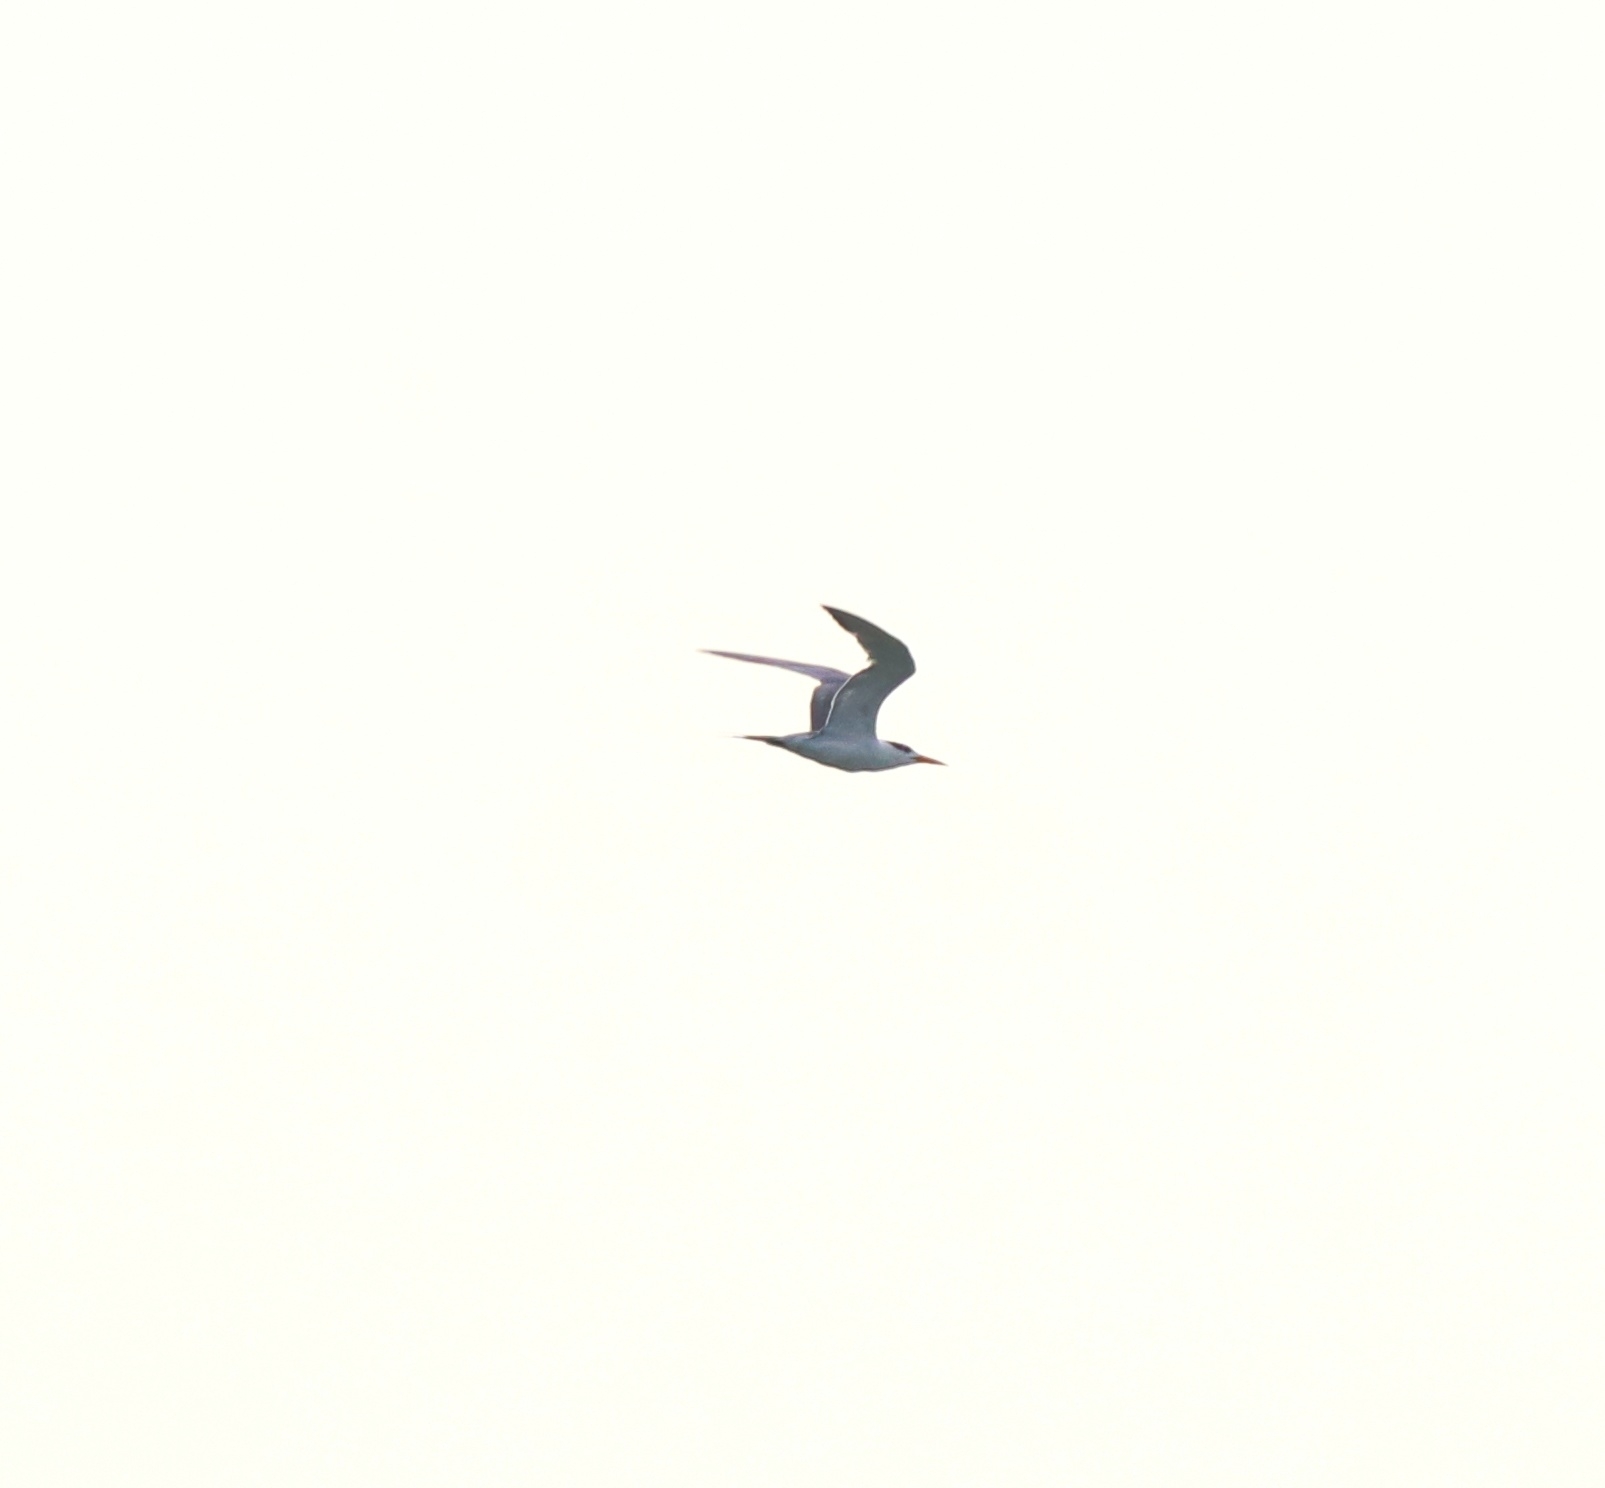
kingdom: Animalia
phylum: Chordata
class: Aves
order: Charadriiformes
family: Laridae
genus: Thalasseus
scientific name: Thalasseus bengalensis
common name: Lesser crested tern
